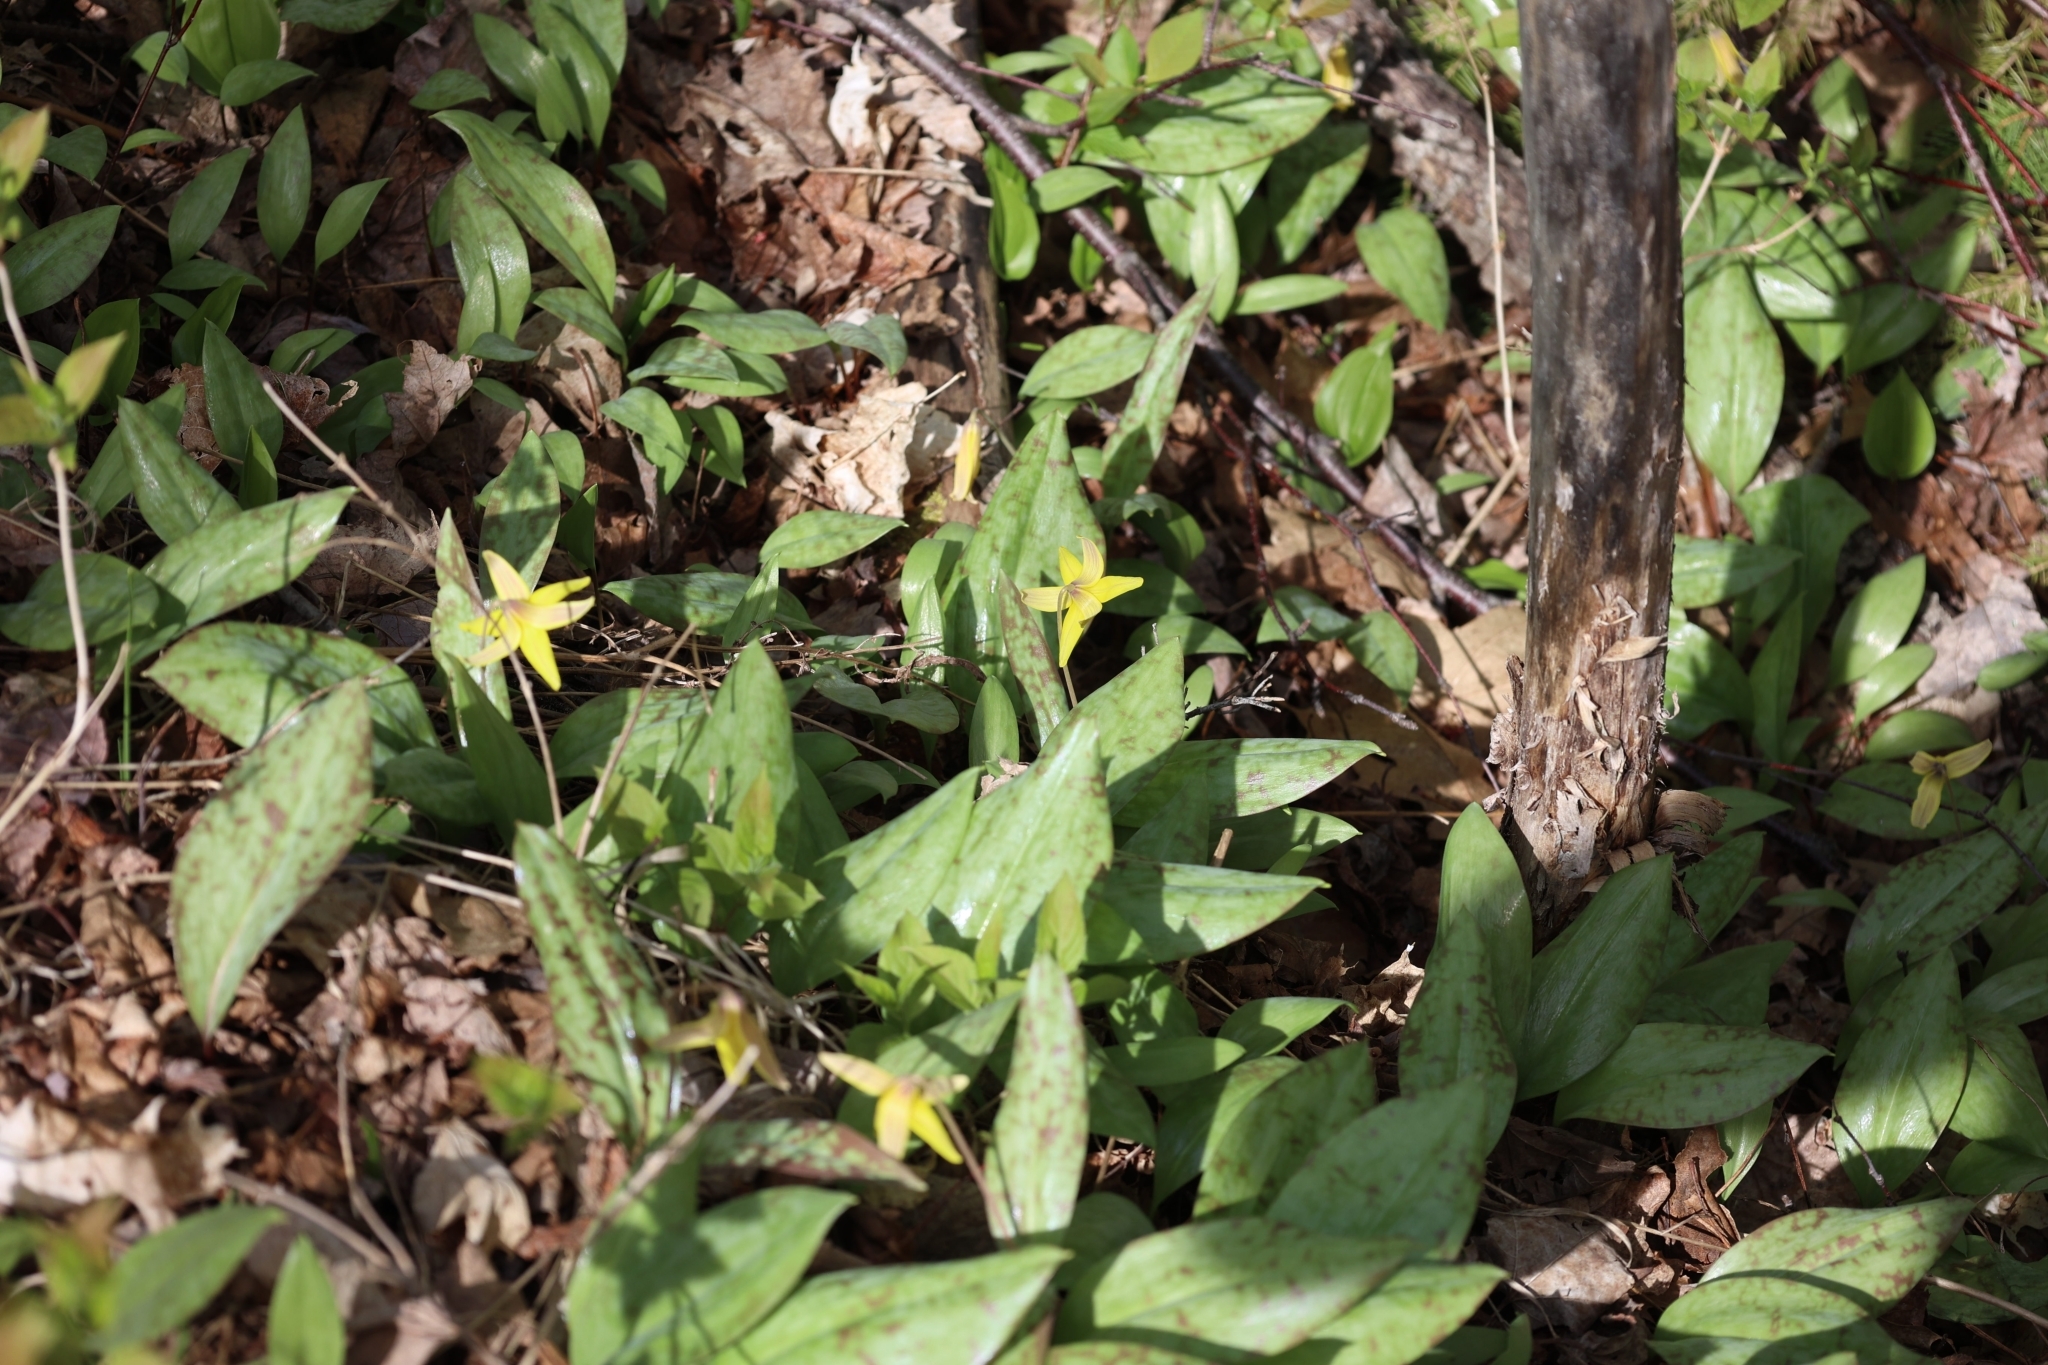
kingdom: Plantae
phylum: Tracheophyta
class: Liliopsida
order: Liliales
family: Liliaceae
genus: Erythronium
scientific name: Erythronium americanum
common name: Yellow adder's-tongue
